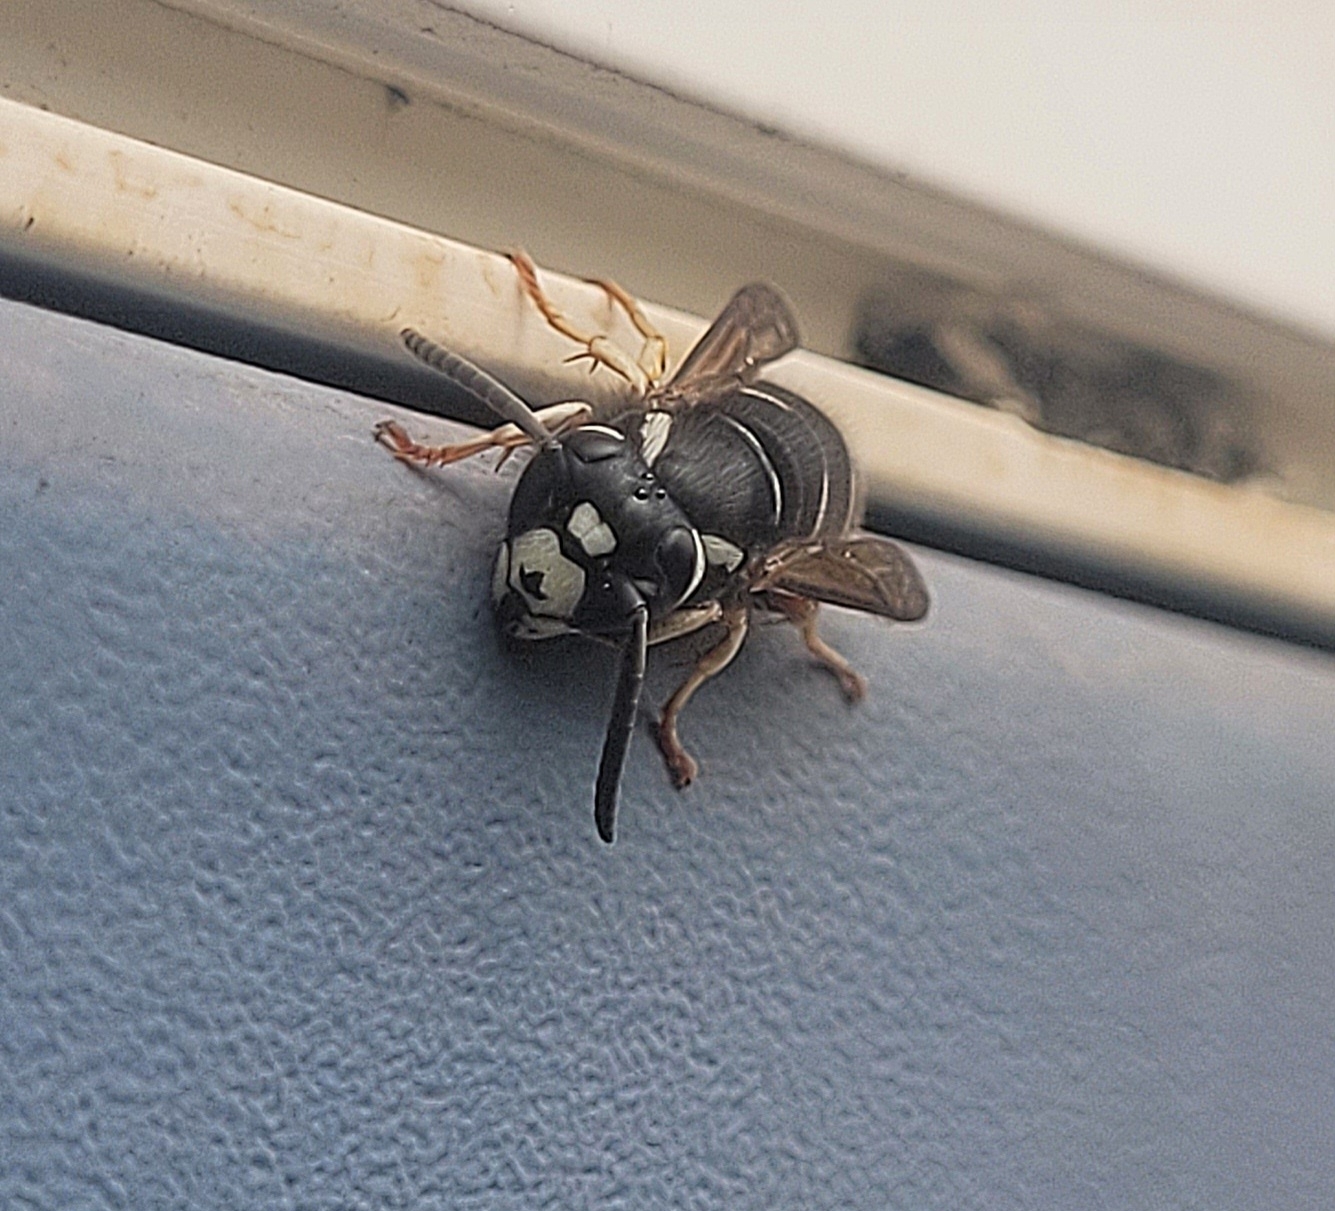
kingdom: Animalia
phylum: Arthropoda
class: Insecta
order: Hymenoptera
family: Vespidae
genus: Vespula
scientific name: Vespula consobrina
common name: Blackjacket
